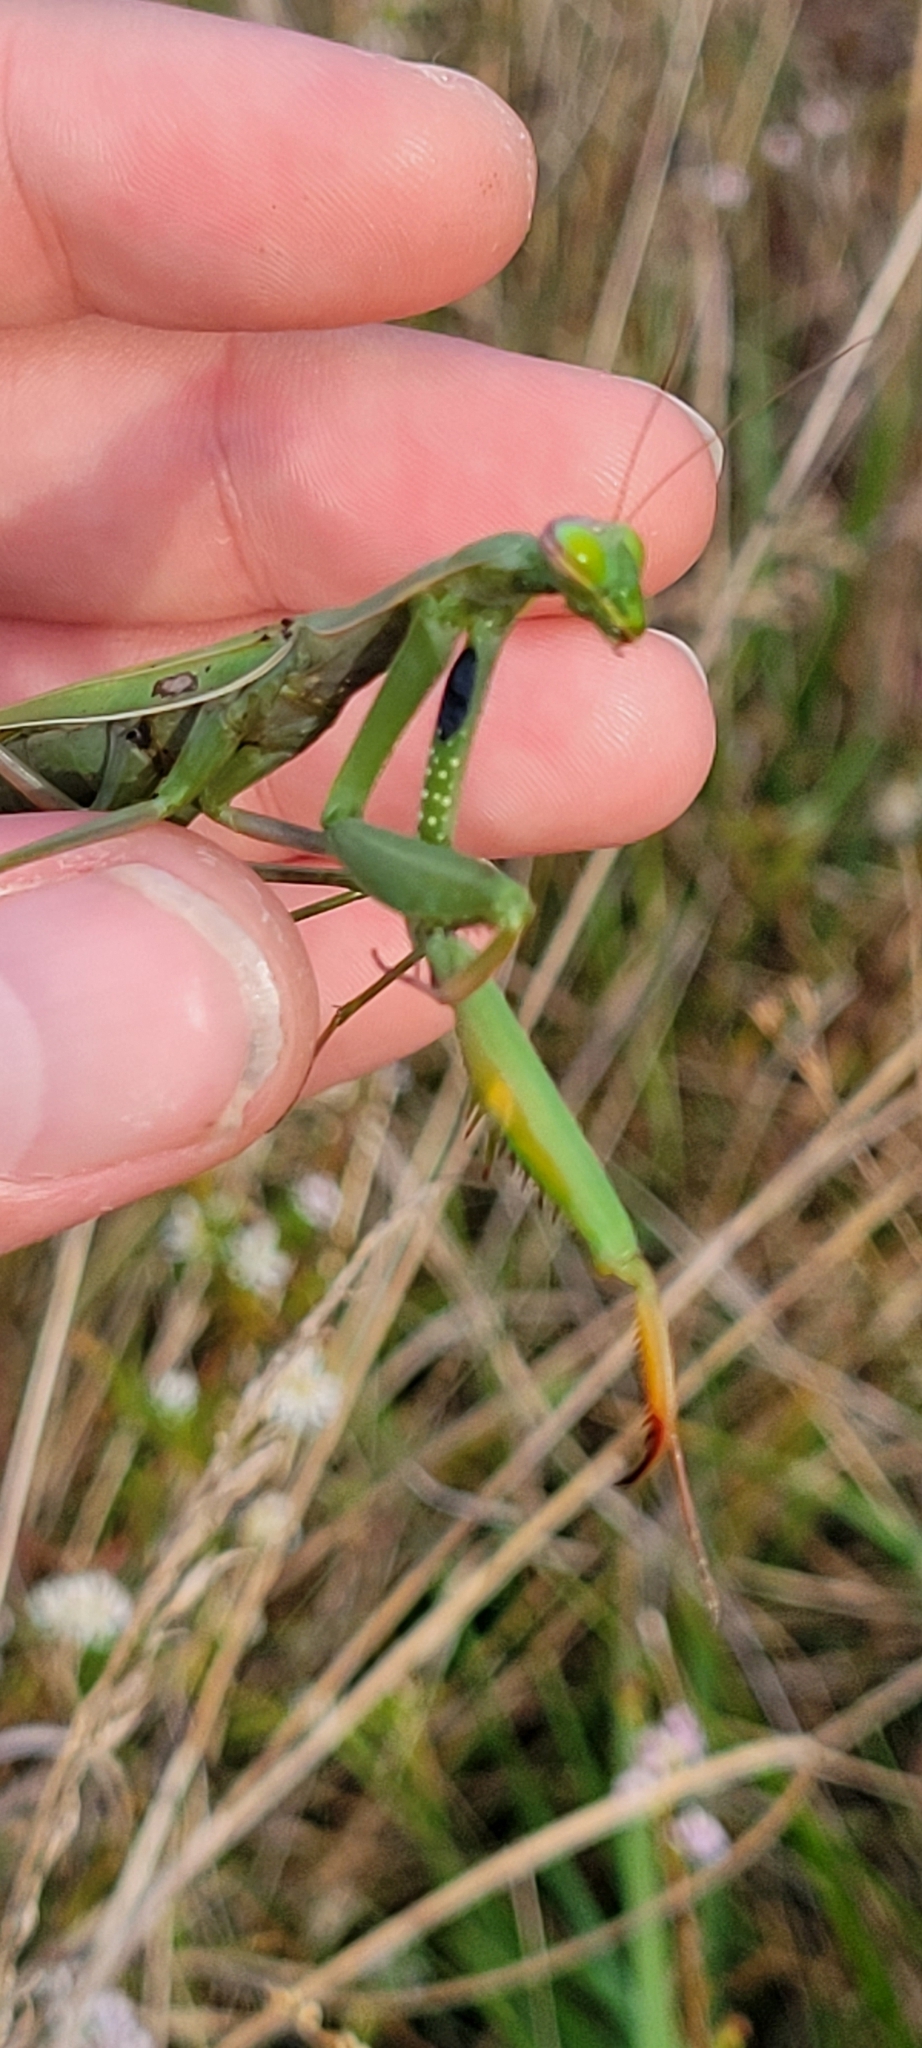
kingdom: Animalia
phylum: Arthropoda
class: Insecta
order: Mantodea
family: Mantidae
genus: Mantis
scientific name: Mantis religiosa
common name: Praying mantis
